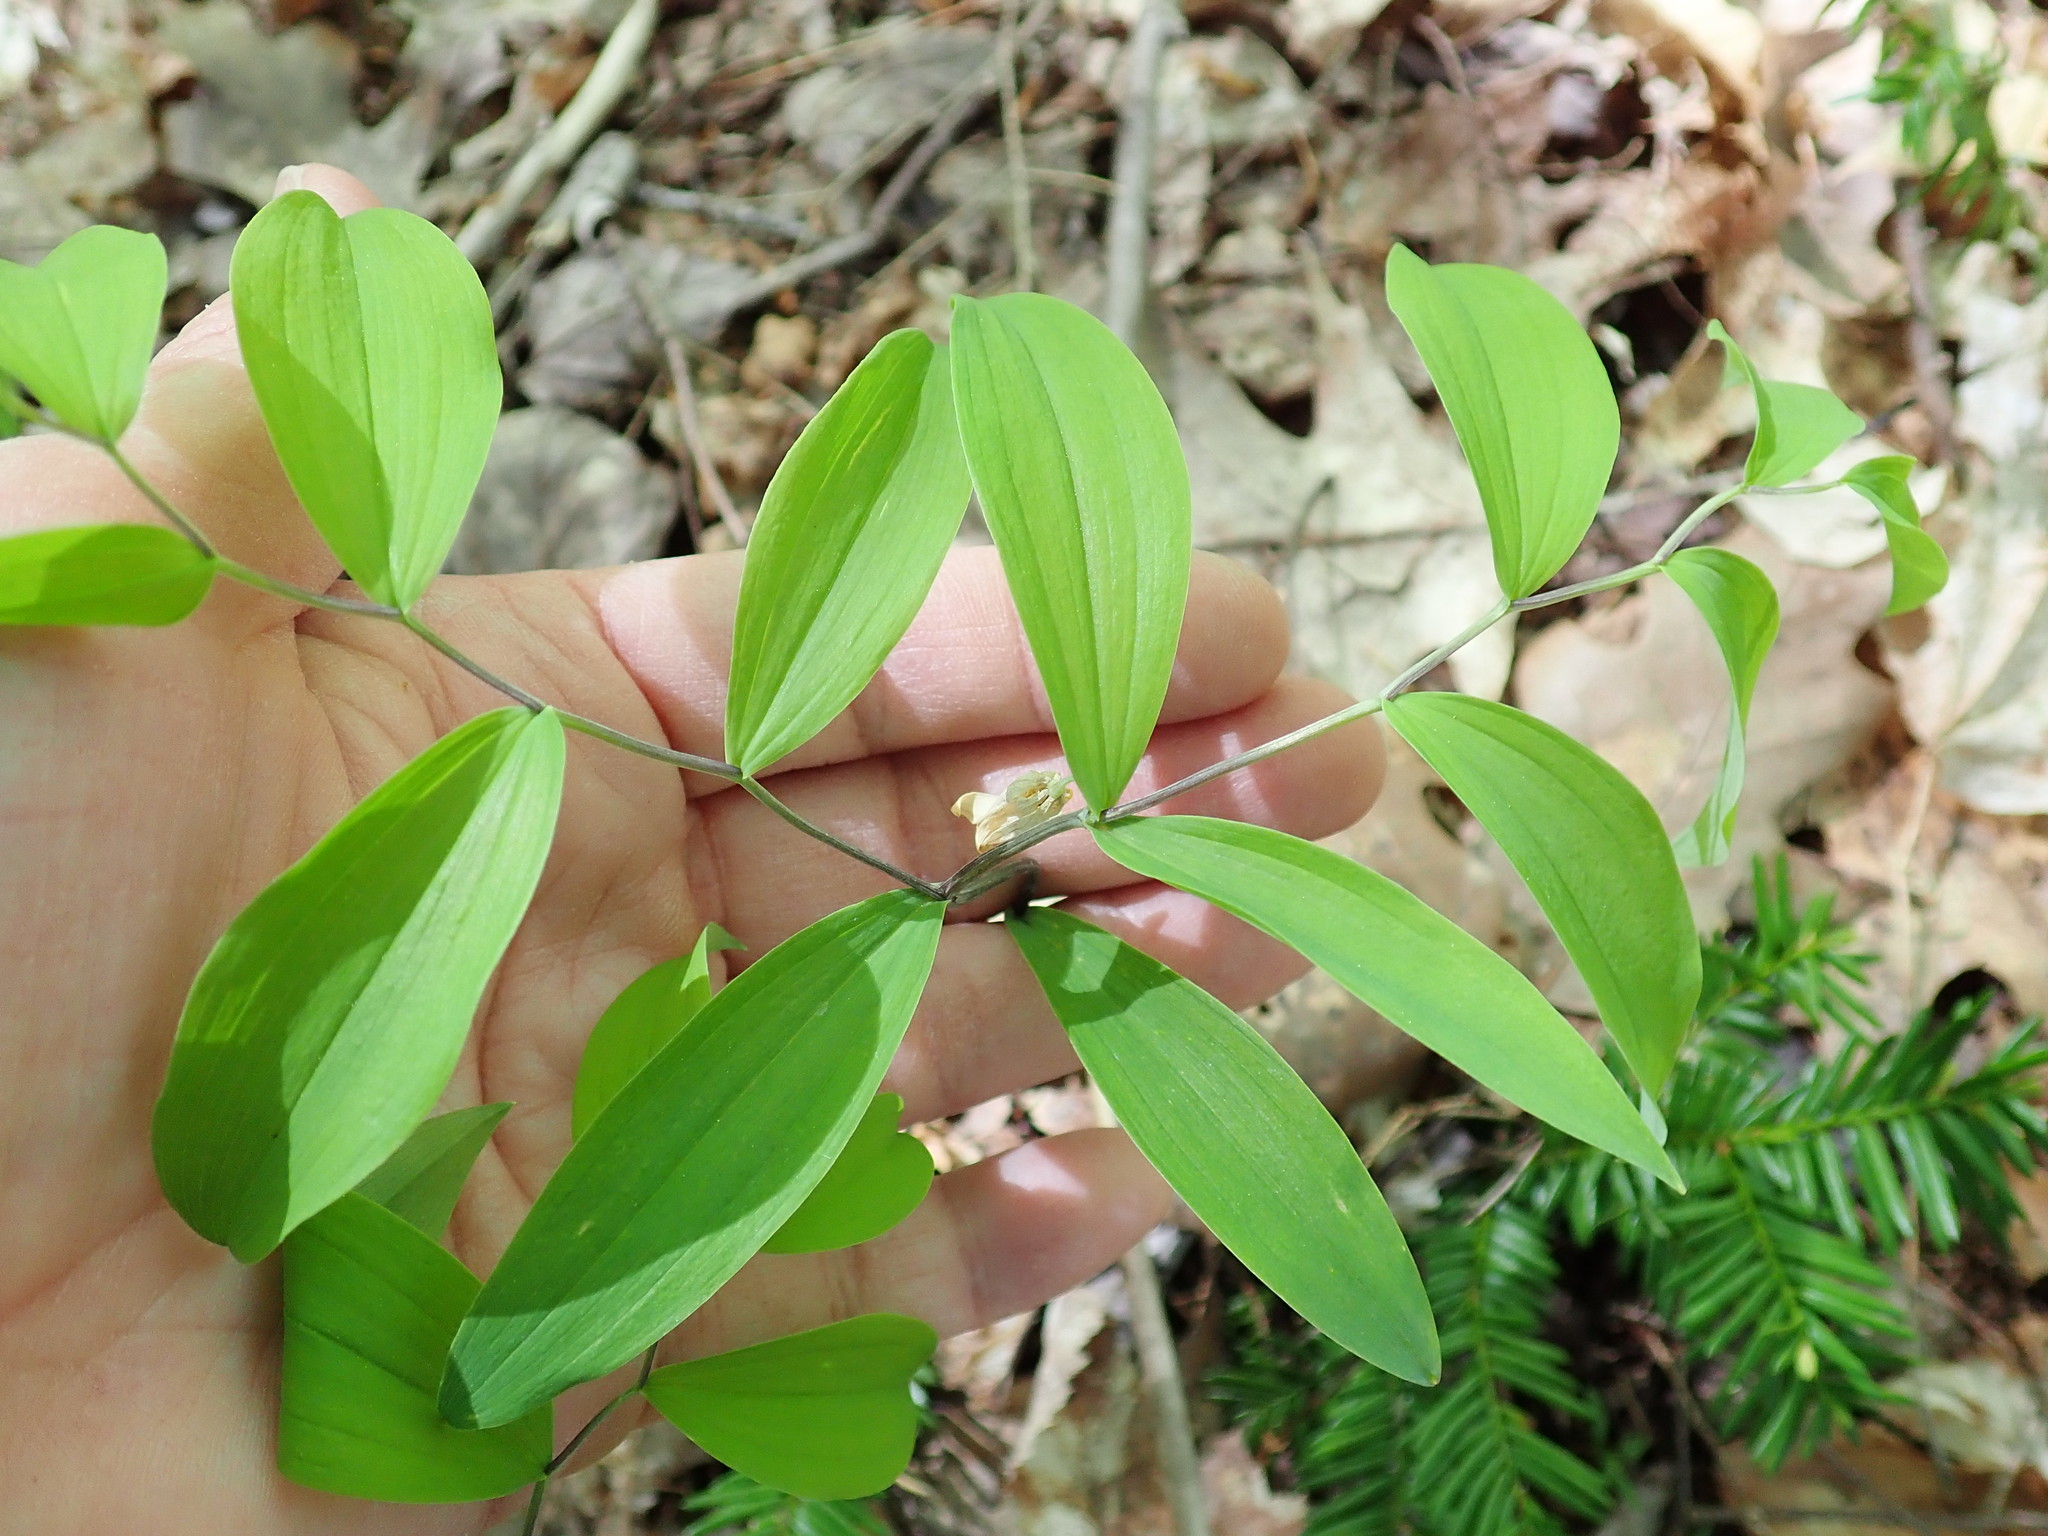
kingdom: Plantae
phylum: Tracheophyta
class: Liliopsida
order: Liliales
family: Colchicaceae
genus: Uvularia
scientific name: Uvularia sessilifolia
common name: Straw-lily
